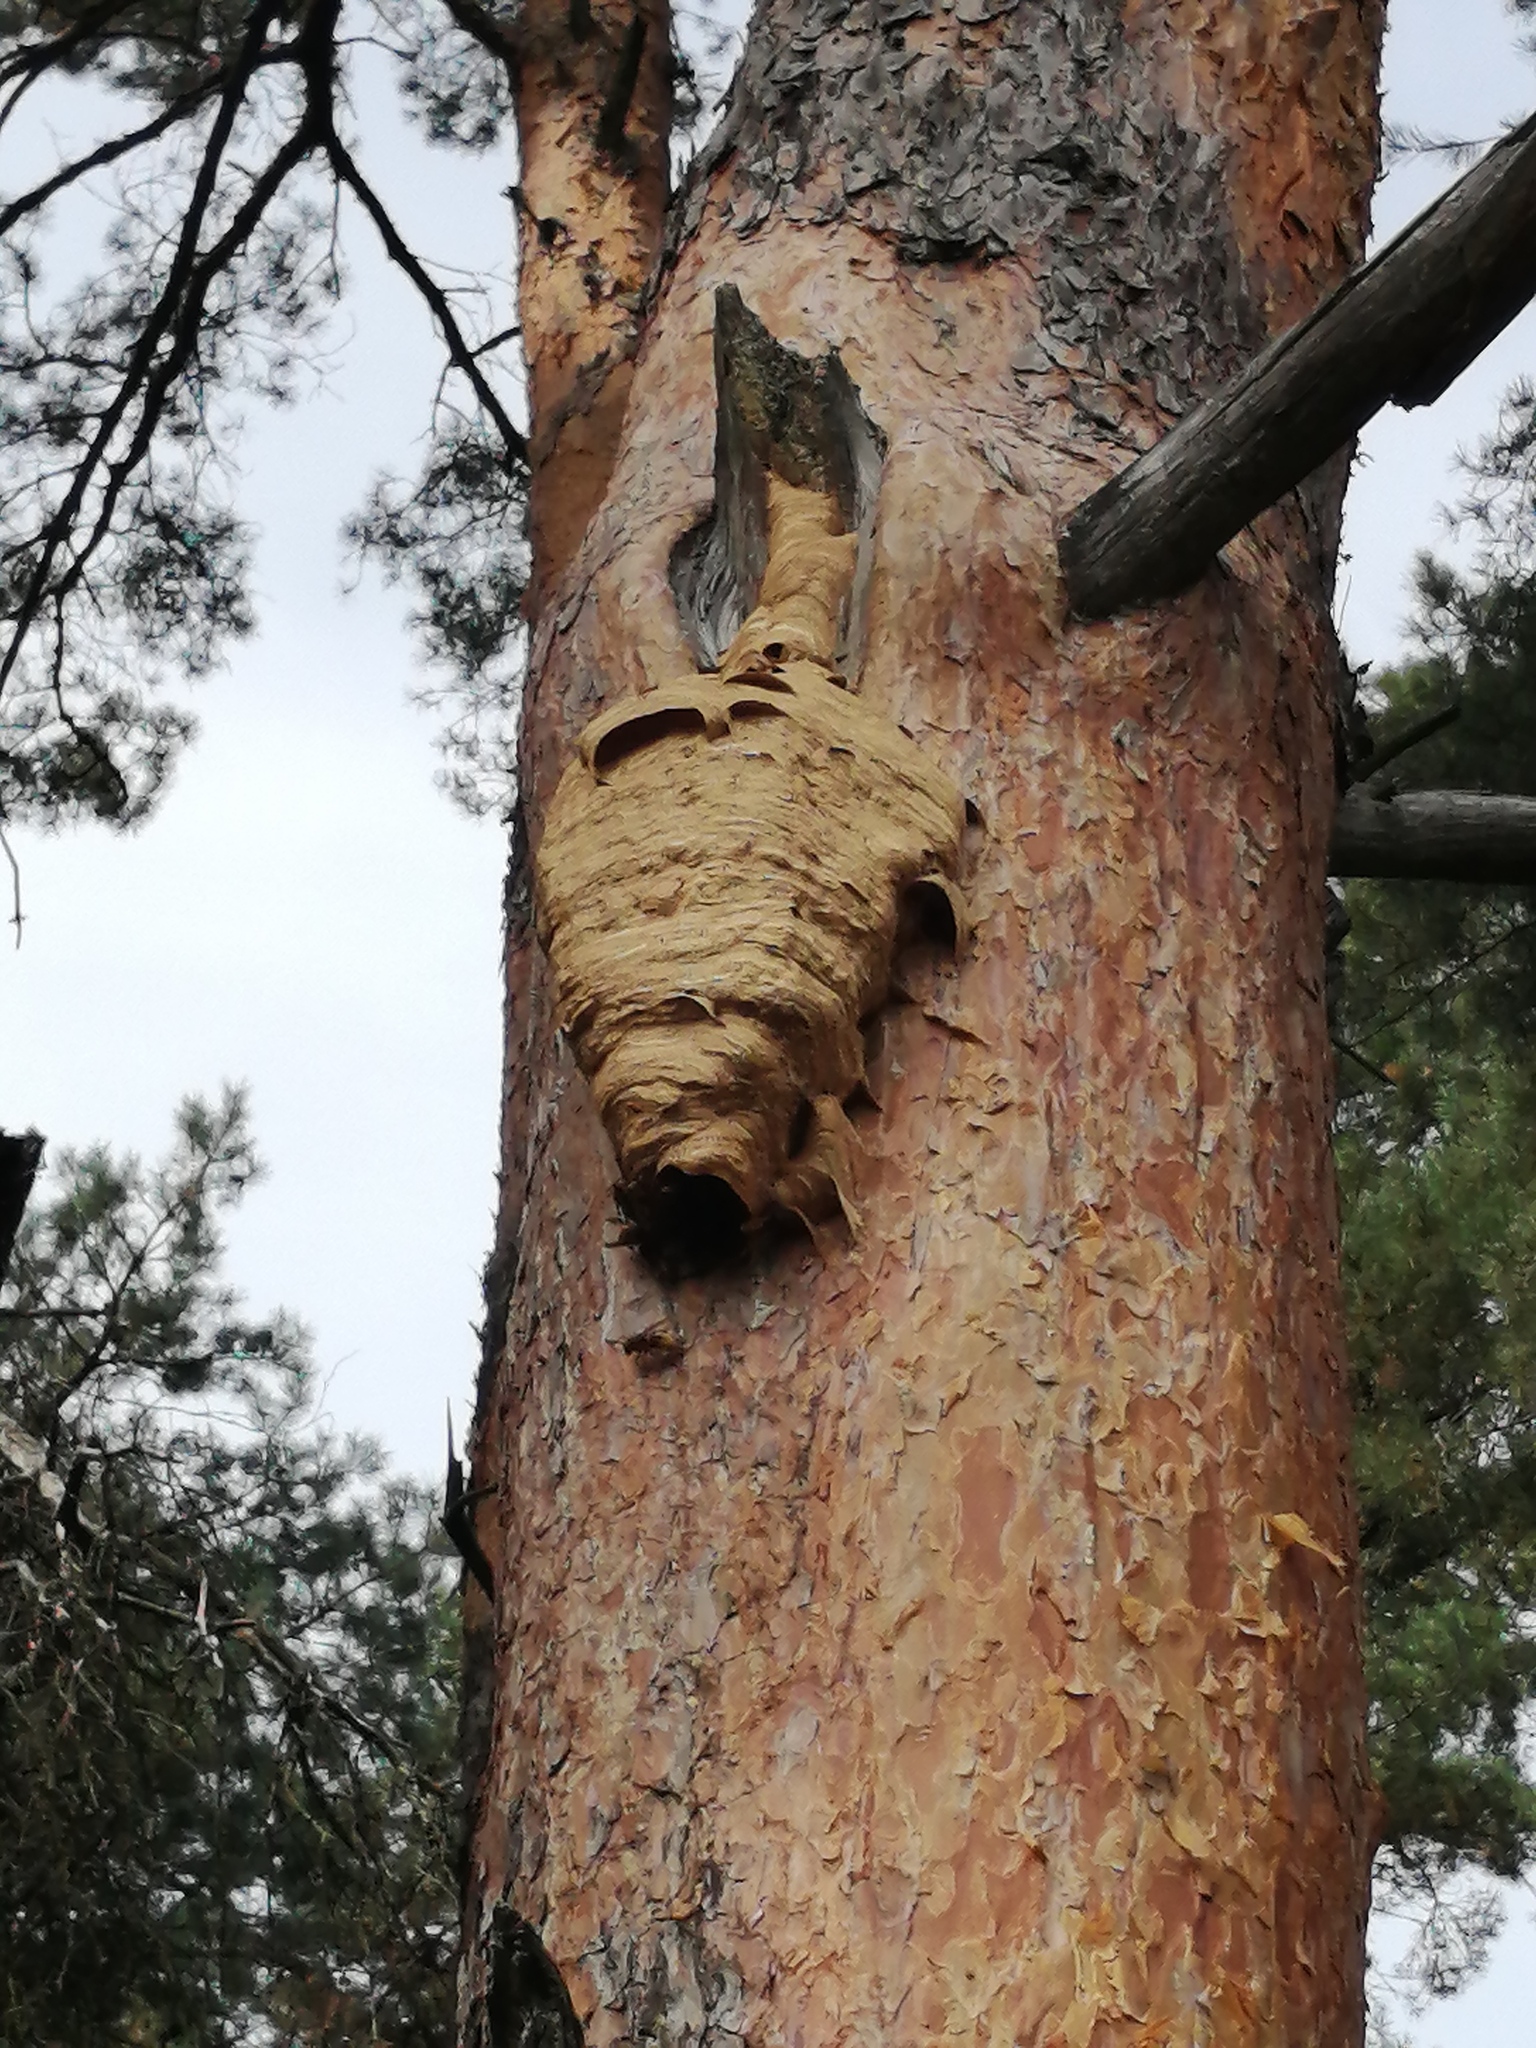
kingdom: Animalia
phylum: Arthropoda
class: Insecta
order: Hymenoptera
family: Vespidae
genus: Vespa
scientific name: Vespa crabro
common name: Hornet
